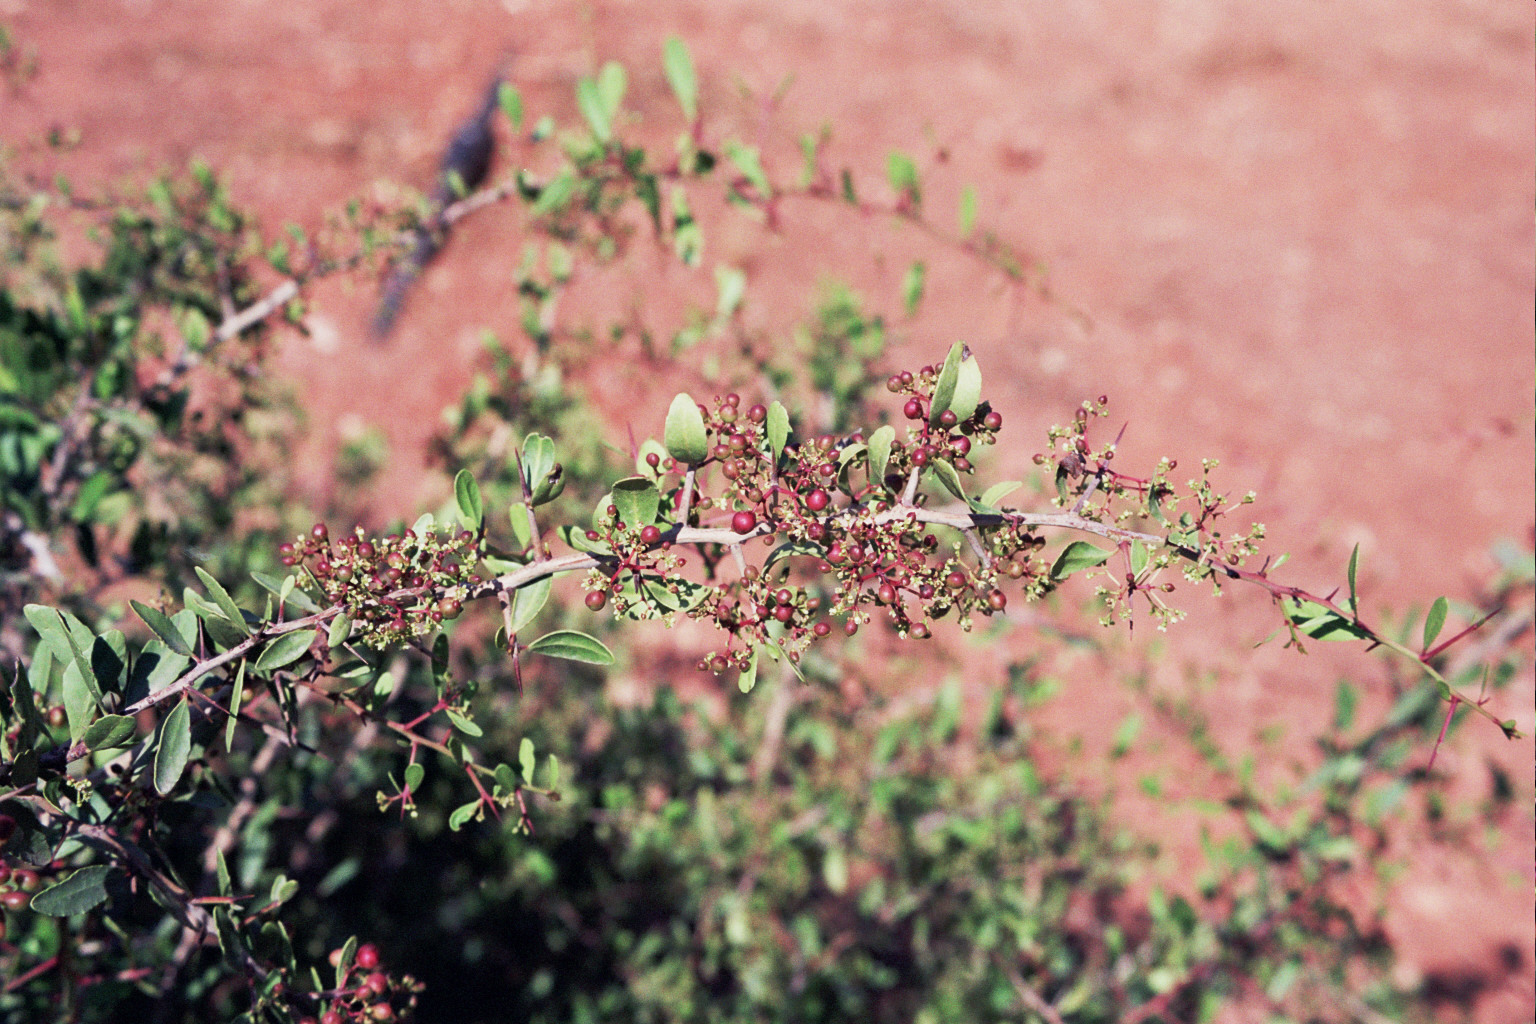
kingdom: Plantae
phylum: Tracheophyta
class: Magnoliopsida
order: Celastrales
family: Celastraceae
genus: Gymnosporia
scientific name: Gymnosporia senegalensis
